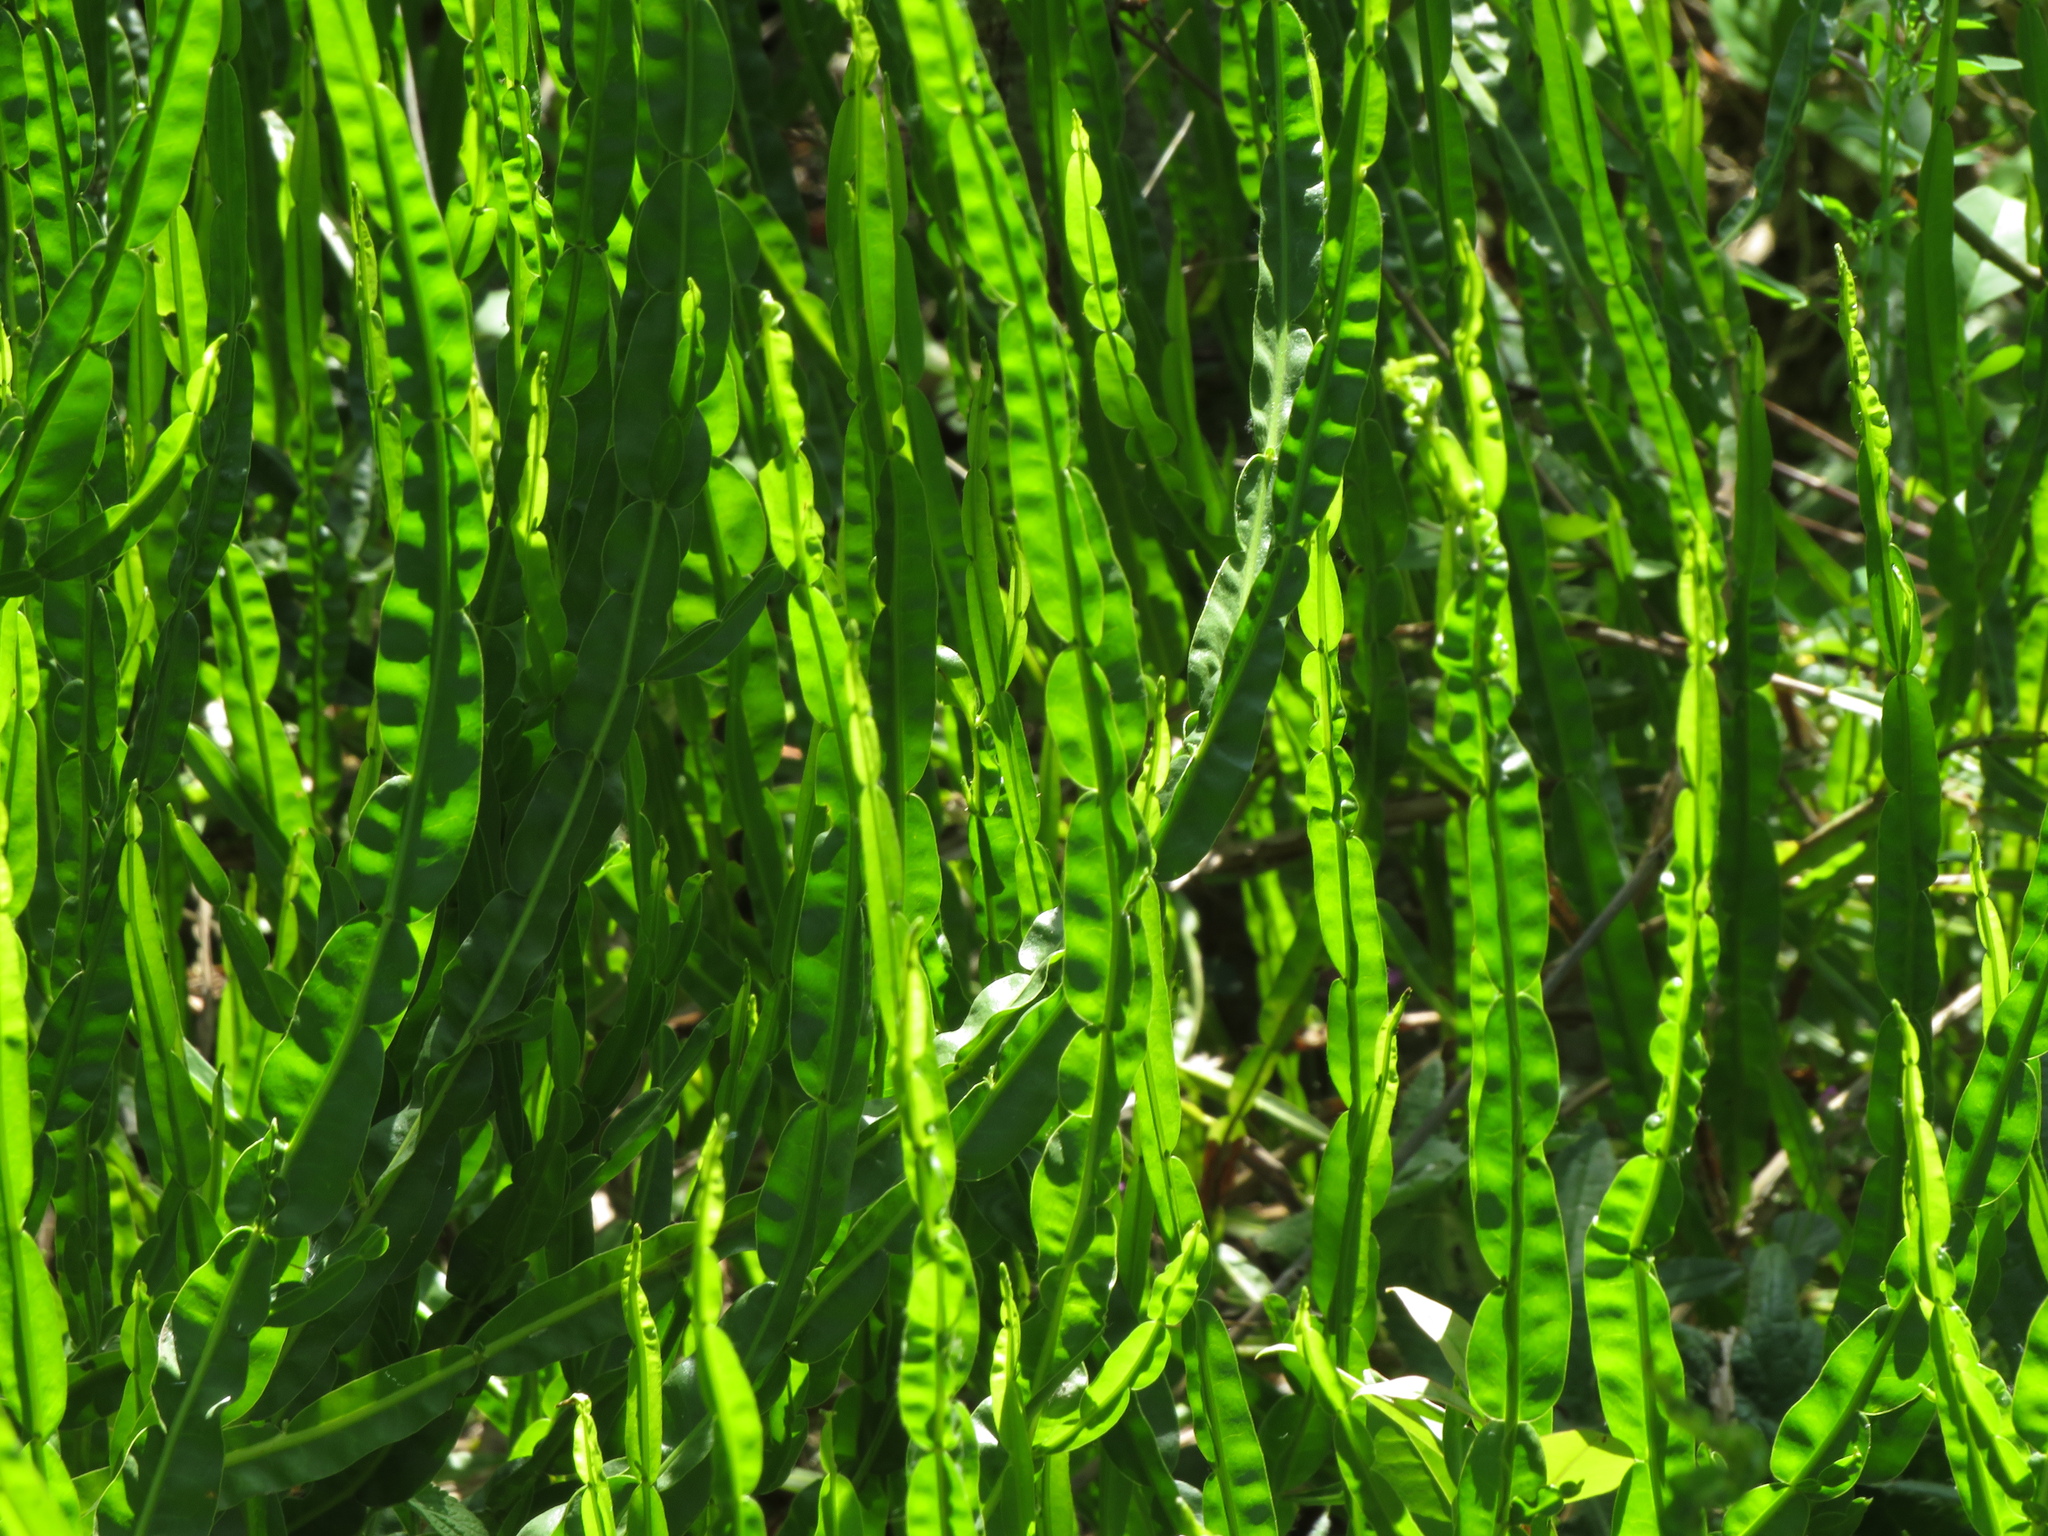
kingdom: Plantae
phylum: Tracheophyta
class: Magnoliopsida
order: Asterales
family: Asteraceae
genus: Baccharis
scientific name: Baccharis trimera
